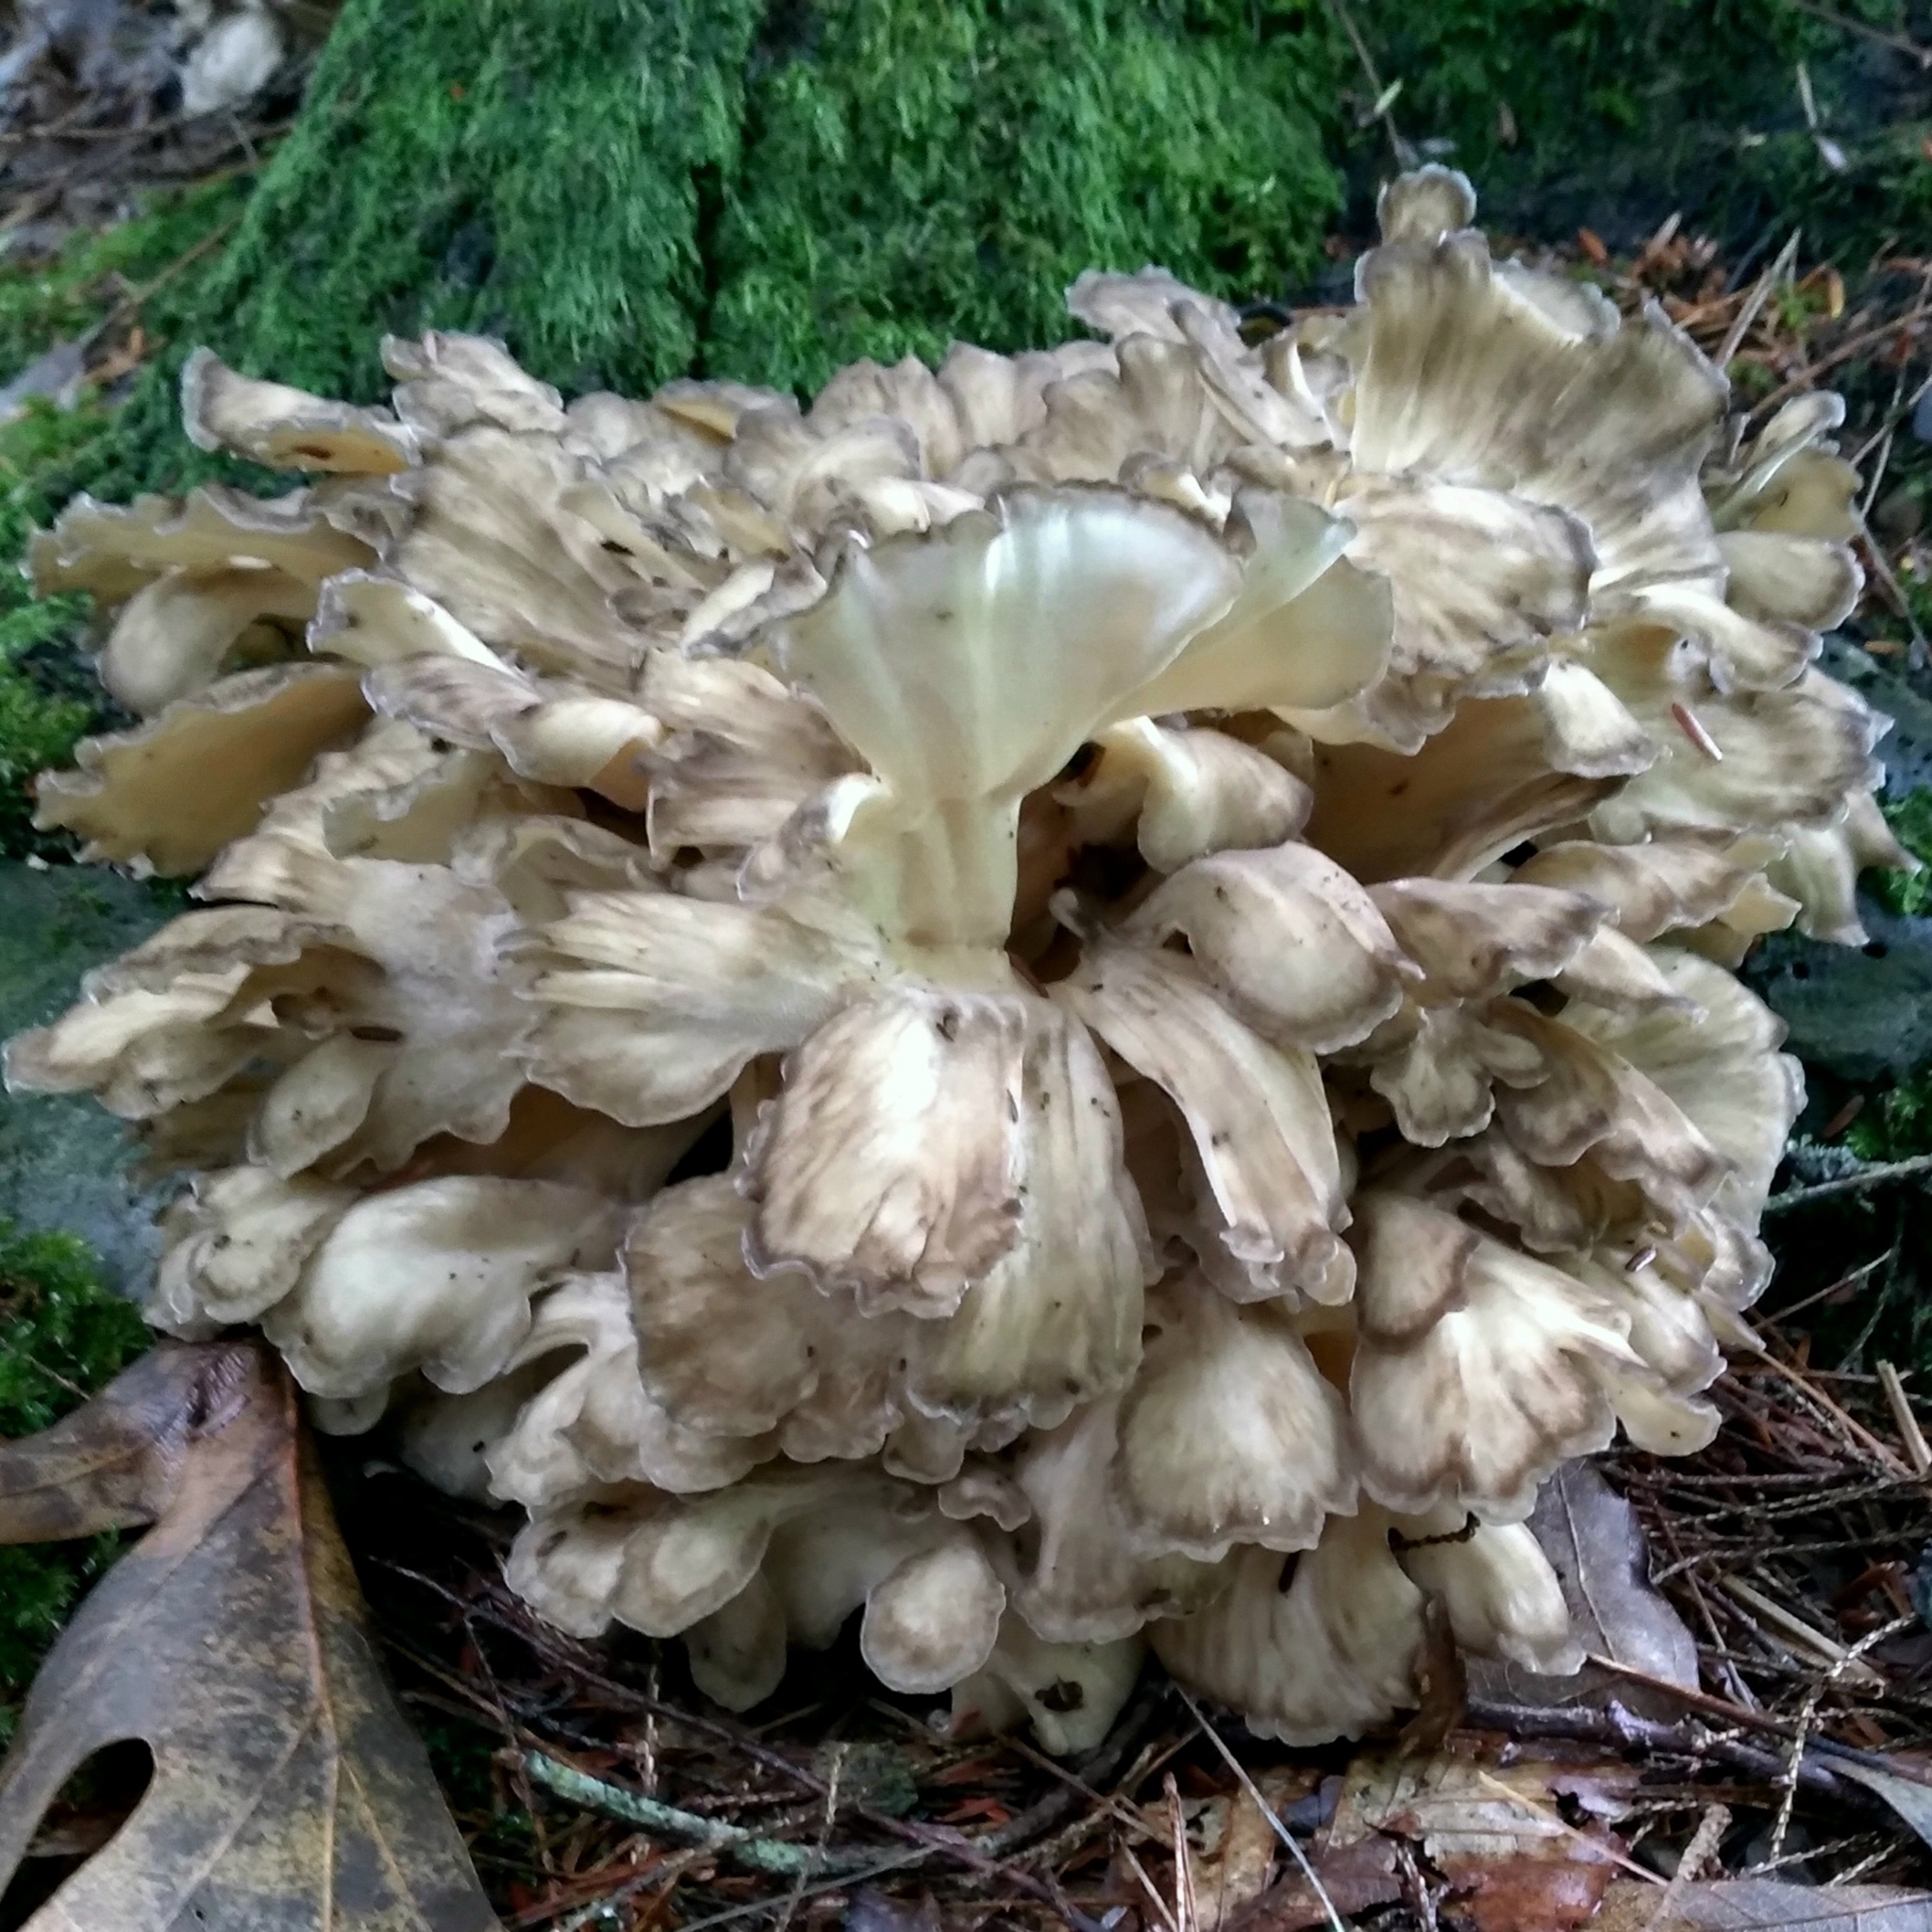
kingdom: Fungi
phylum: Basidiomycota
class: Agaricomycetes
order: Polyporales
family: Grifolaceae
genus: Grifola
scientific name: Grifola frondosa
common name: Hen of the woods
